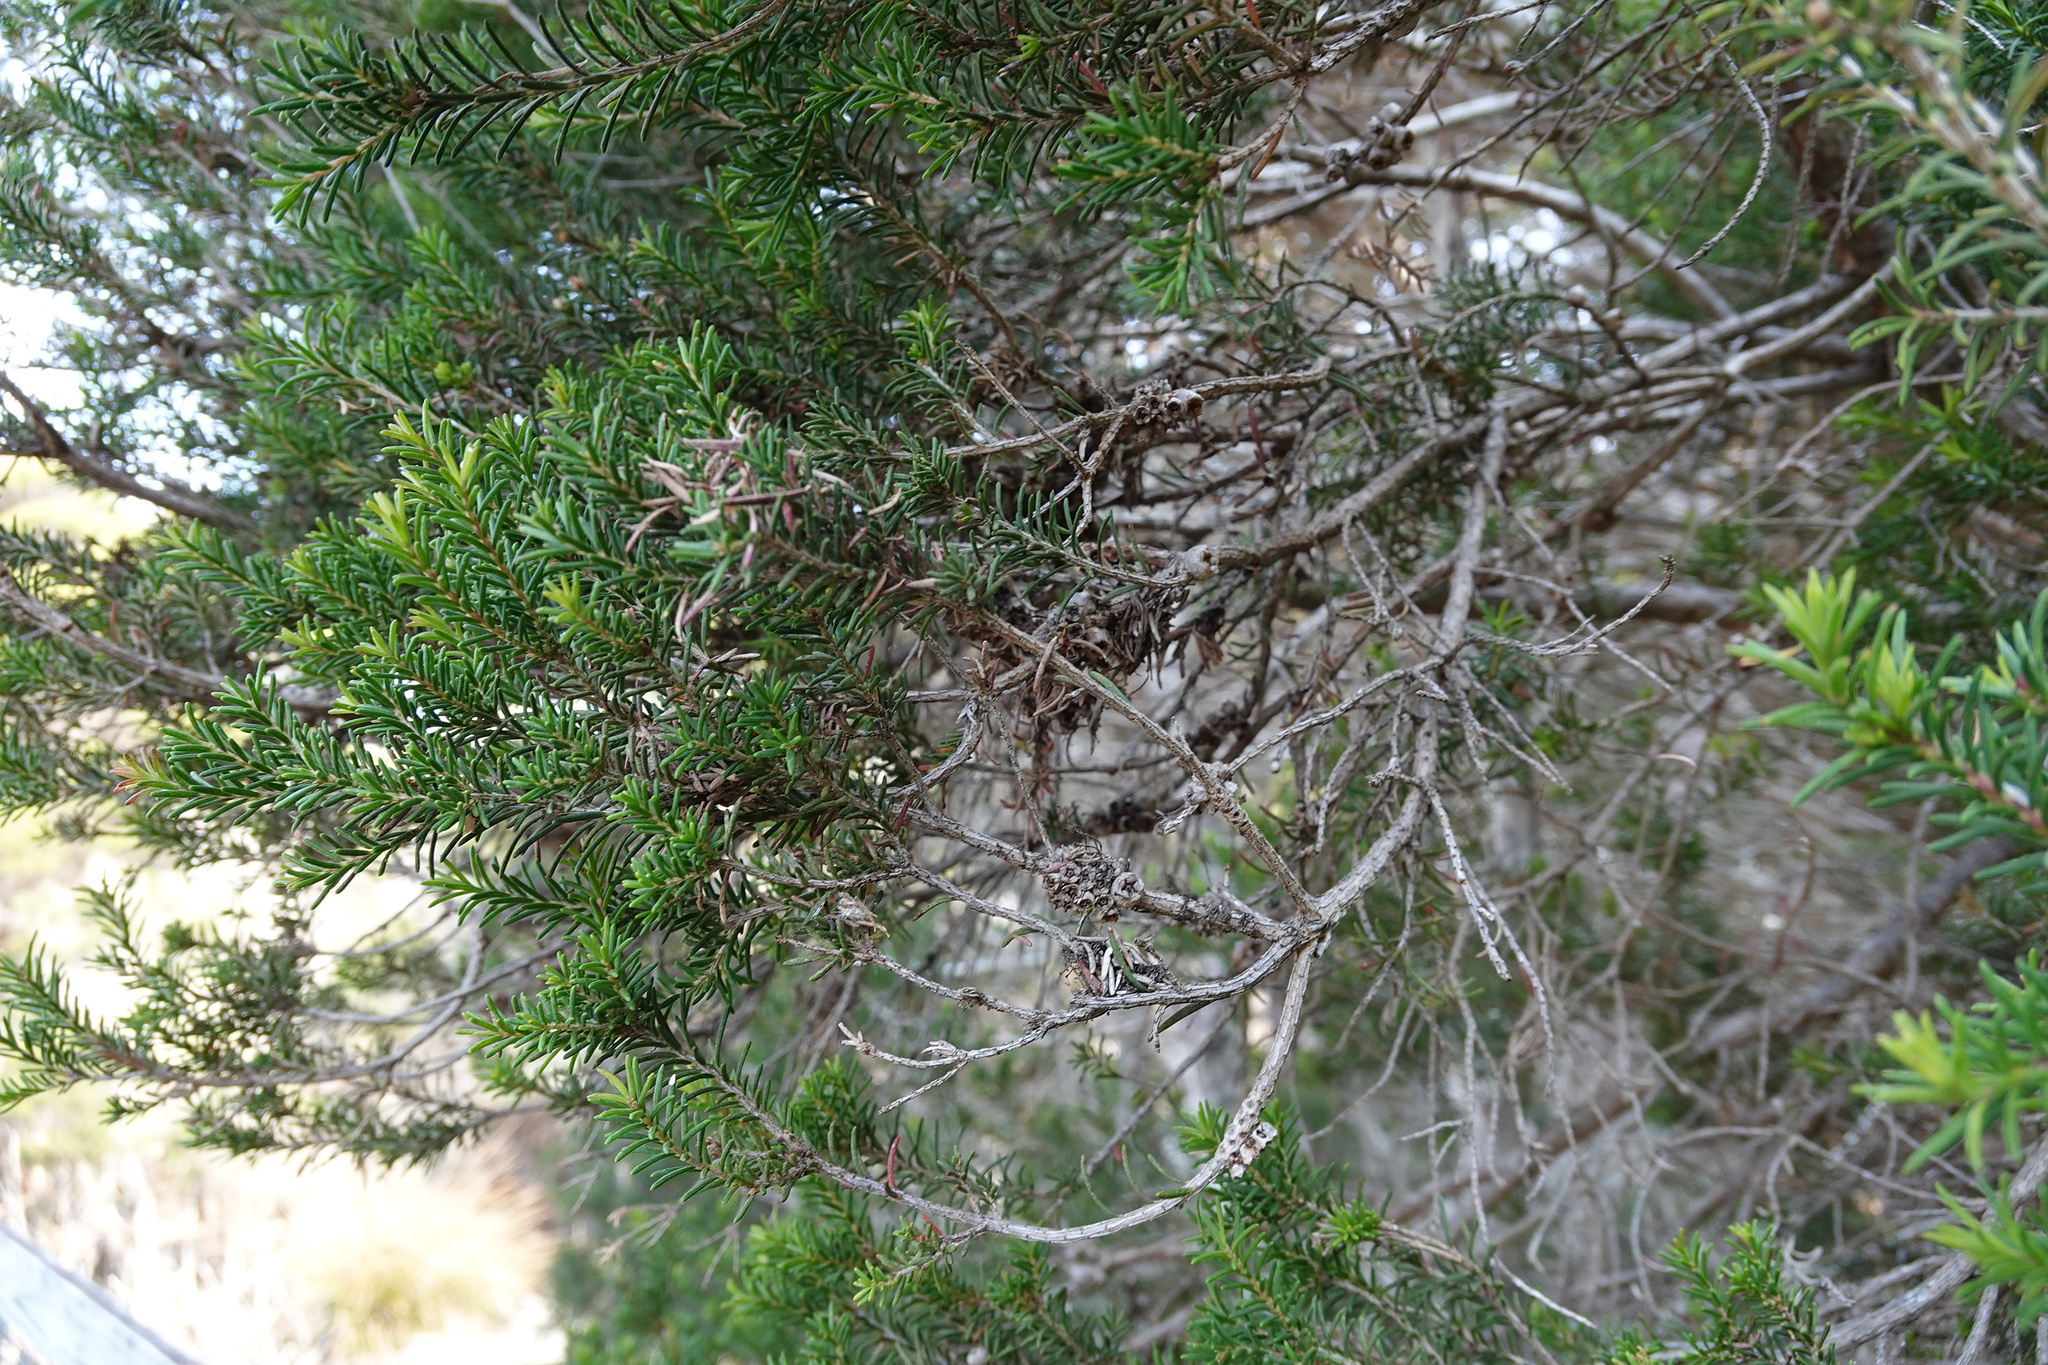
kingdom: Plantae
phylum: Tracheophyta
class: Magnoliopsida
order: Myrtales
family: Myrtaceae
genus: Melaleuca
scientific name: Melaleuca ericifolia
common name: Paperbark teatree
